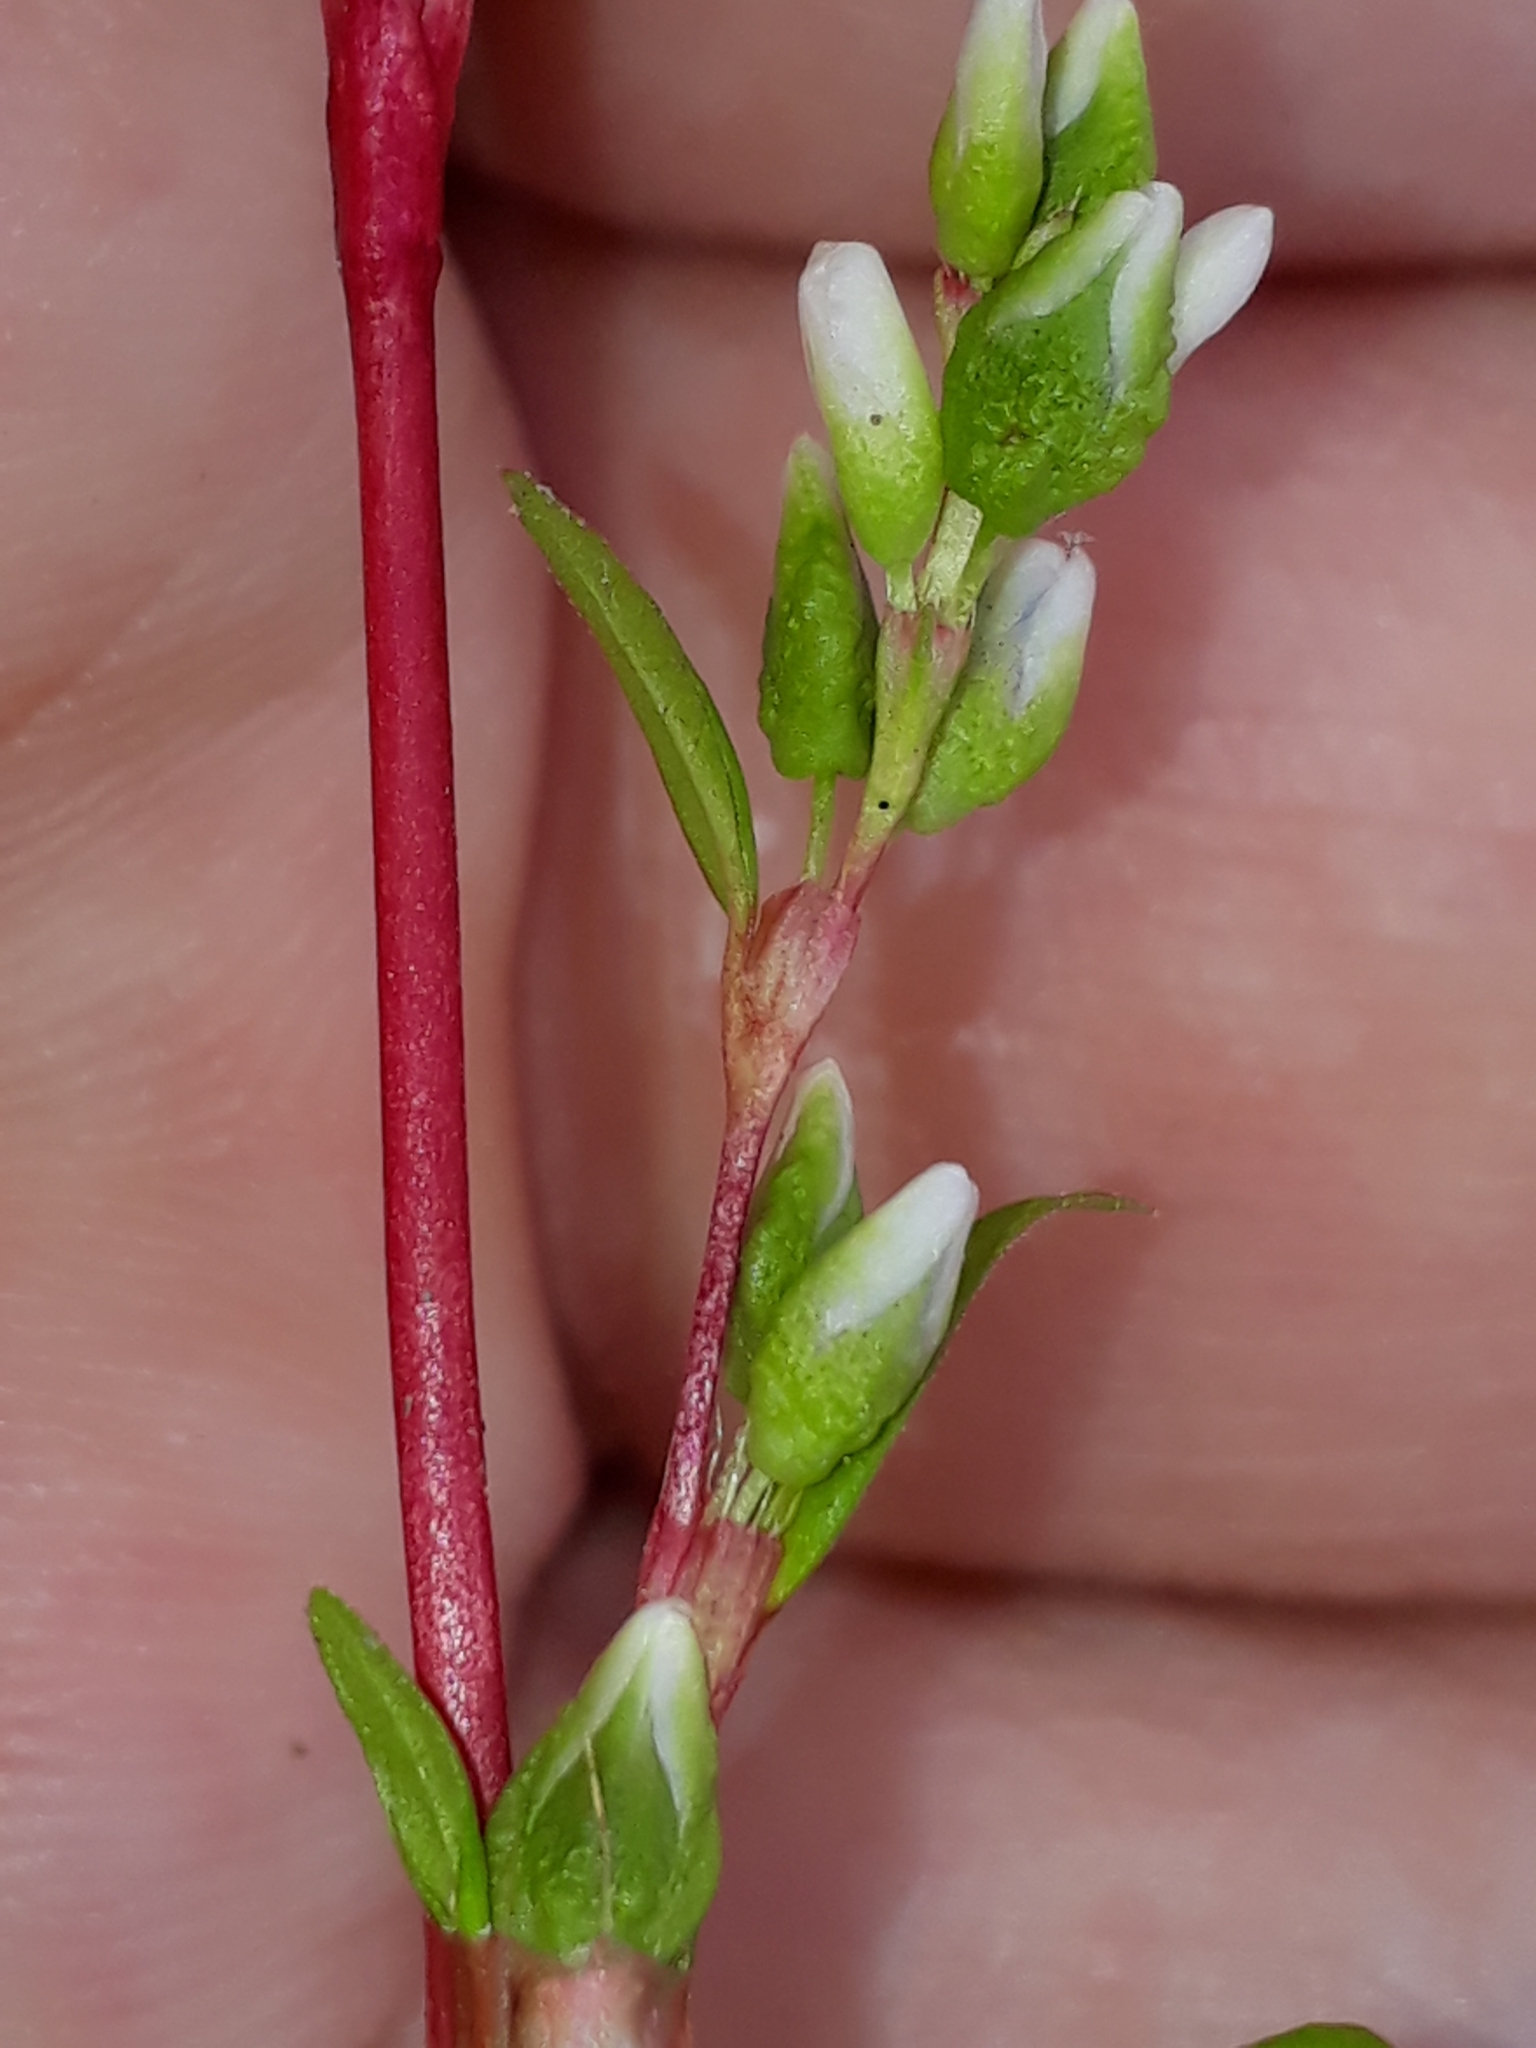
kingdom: Plantae
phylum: Tracheophyta
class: Magnoliopsida
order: Caryophyllales
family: Polygonaceae
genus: Persicaria
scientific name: Persicaria hydropiper
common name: Water-pepper
